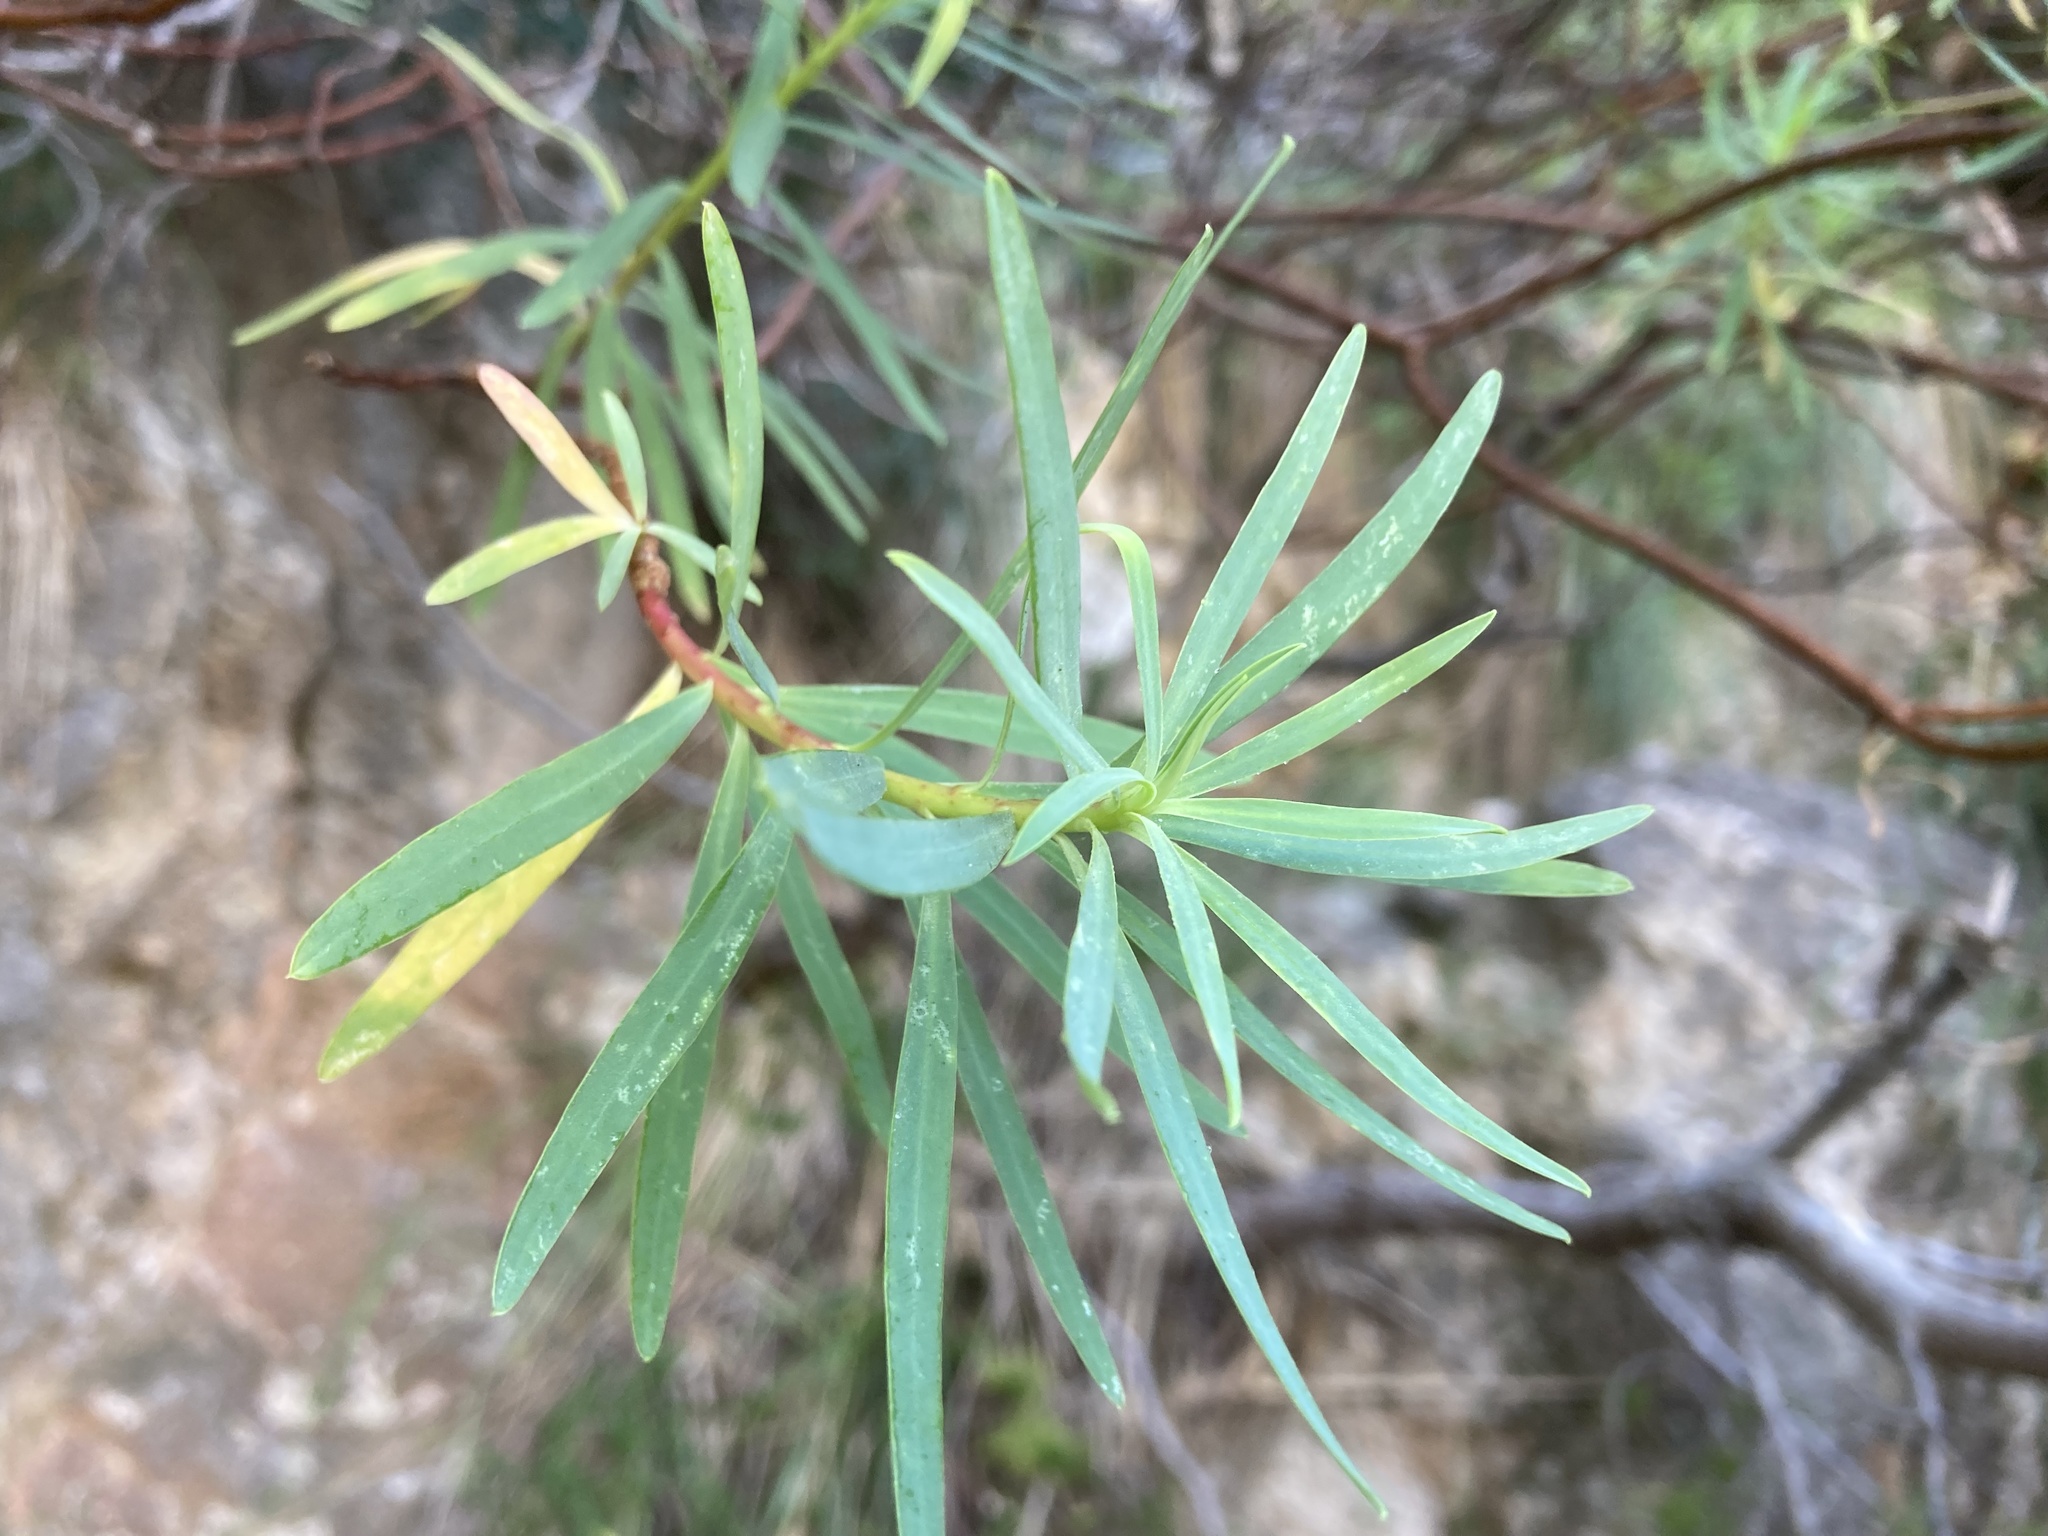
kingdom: Plantae
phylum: Tracheophyta
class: Magnoliopsida
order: Malpighiales
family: Euphorbiaceae
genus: Euphorbia
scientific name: Euphorbia dendroides
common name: Tree spurge
